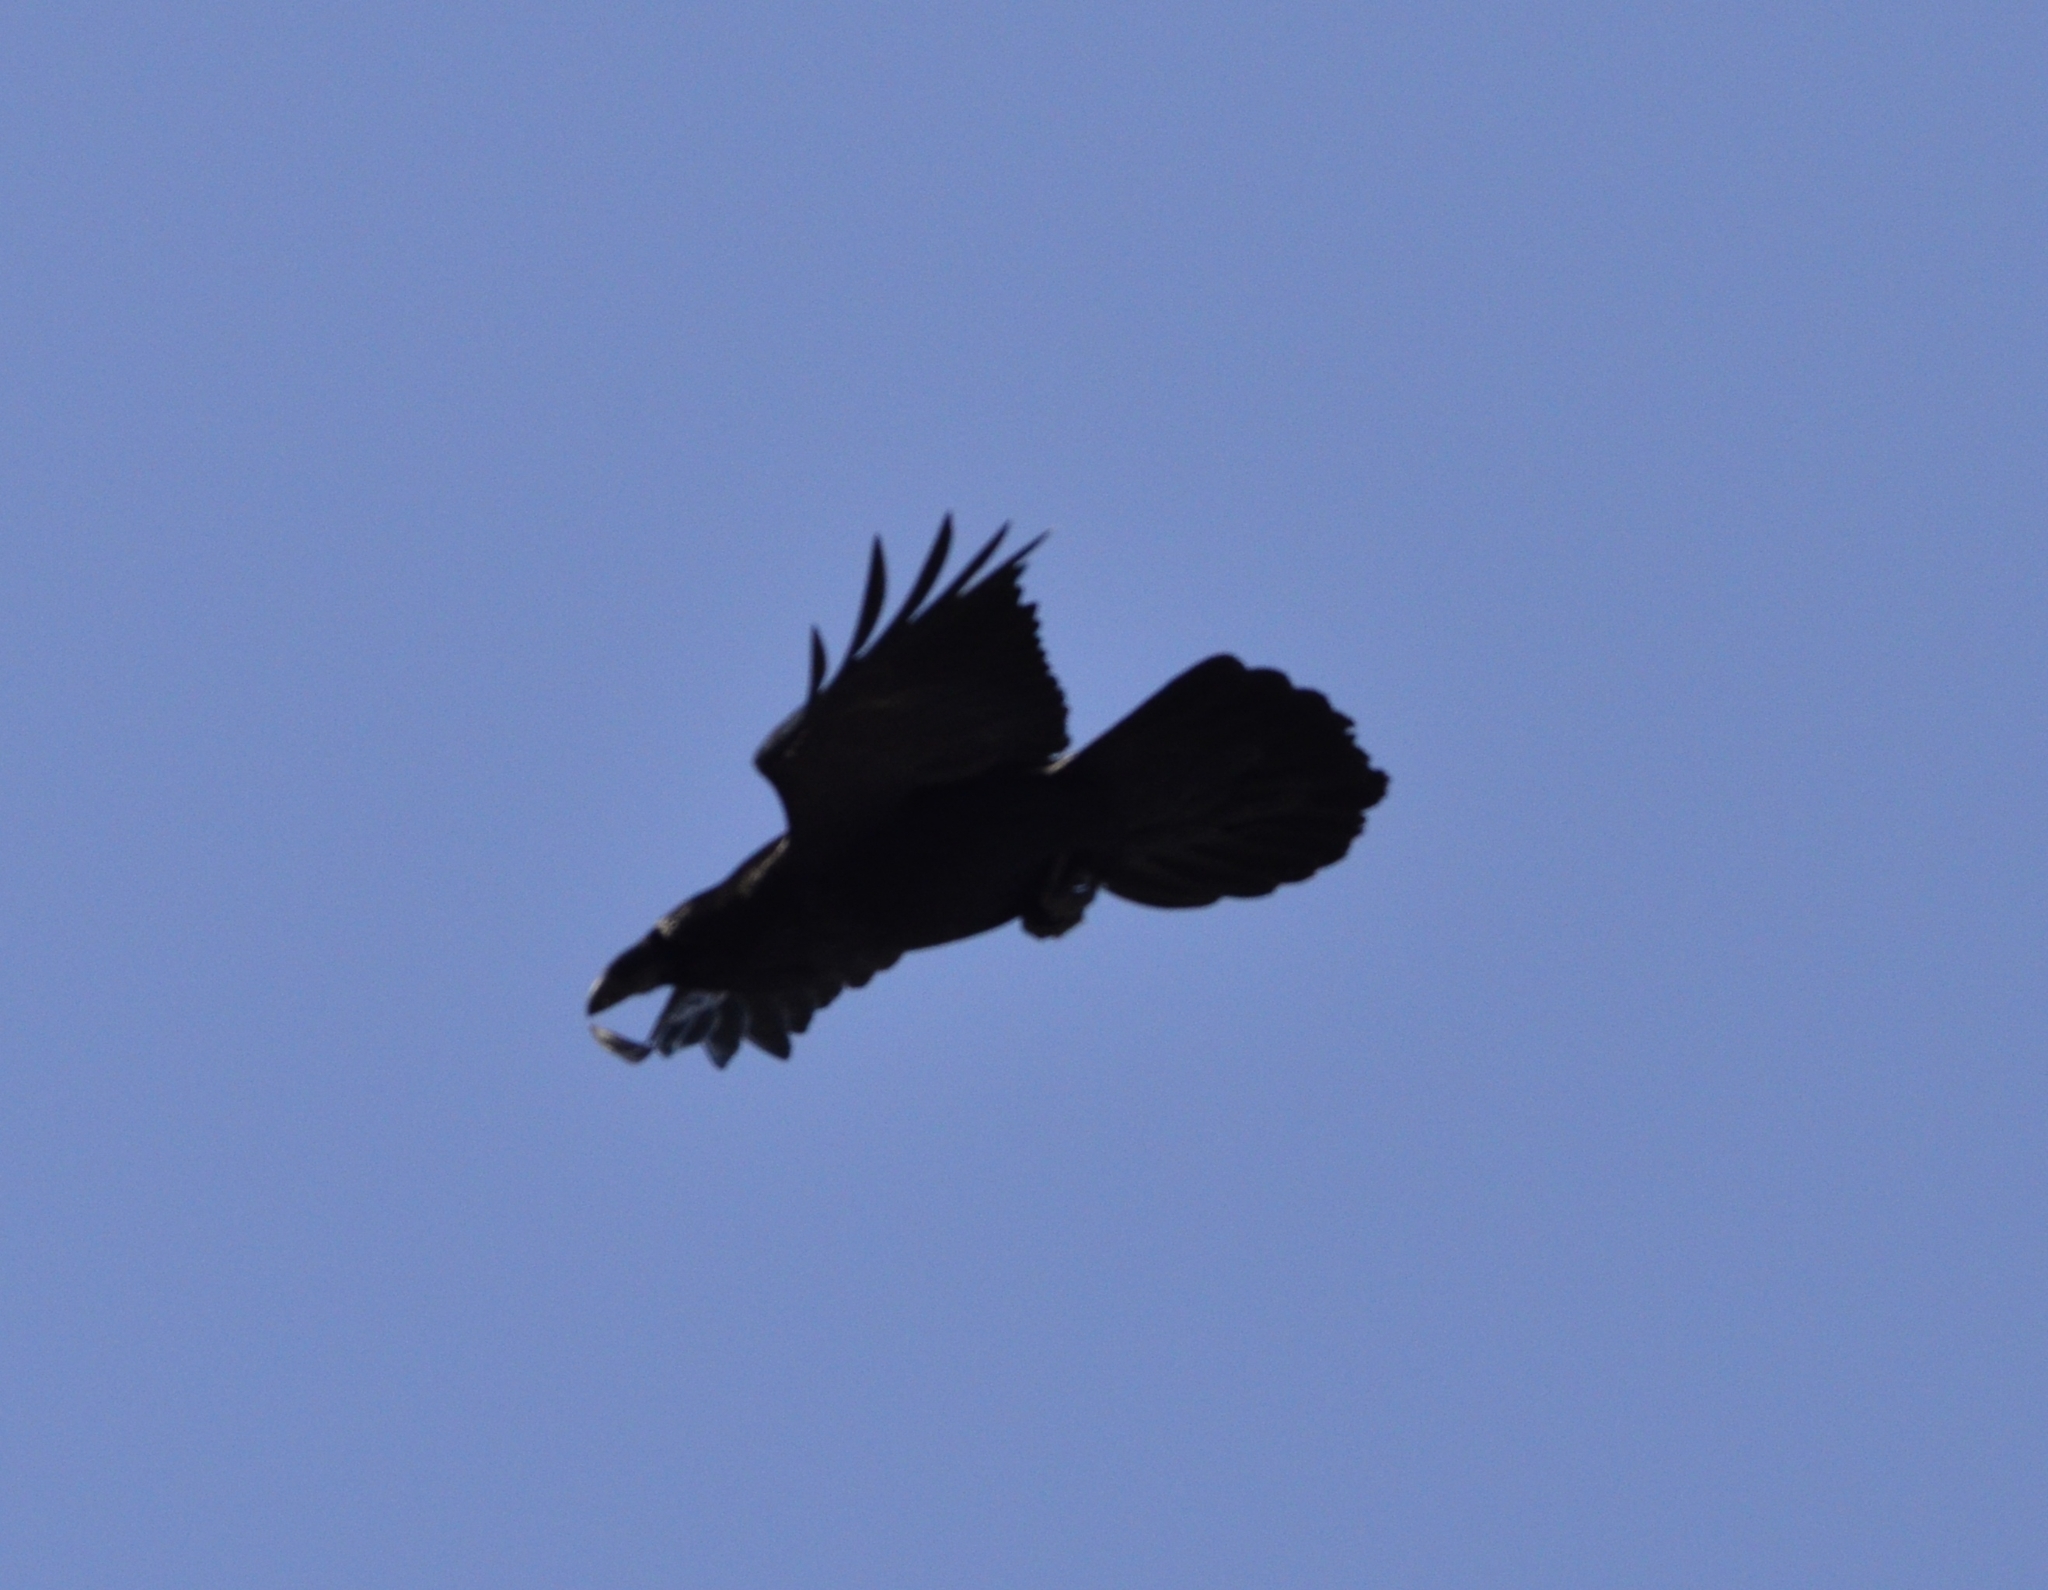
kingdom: Animalia
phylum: Chordata
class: Aves
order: Passeriformes
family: Corvidae
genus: Corvus
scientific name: Corvus corax
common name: Common raven
